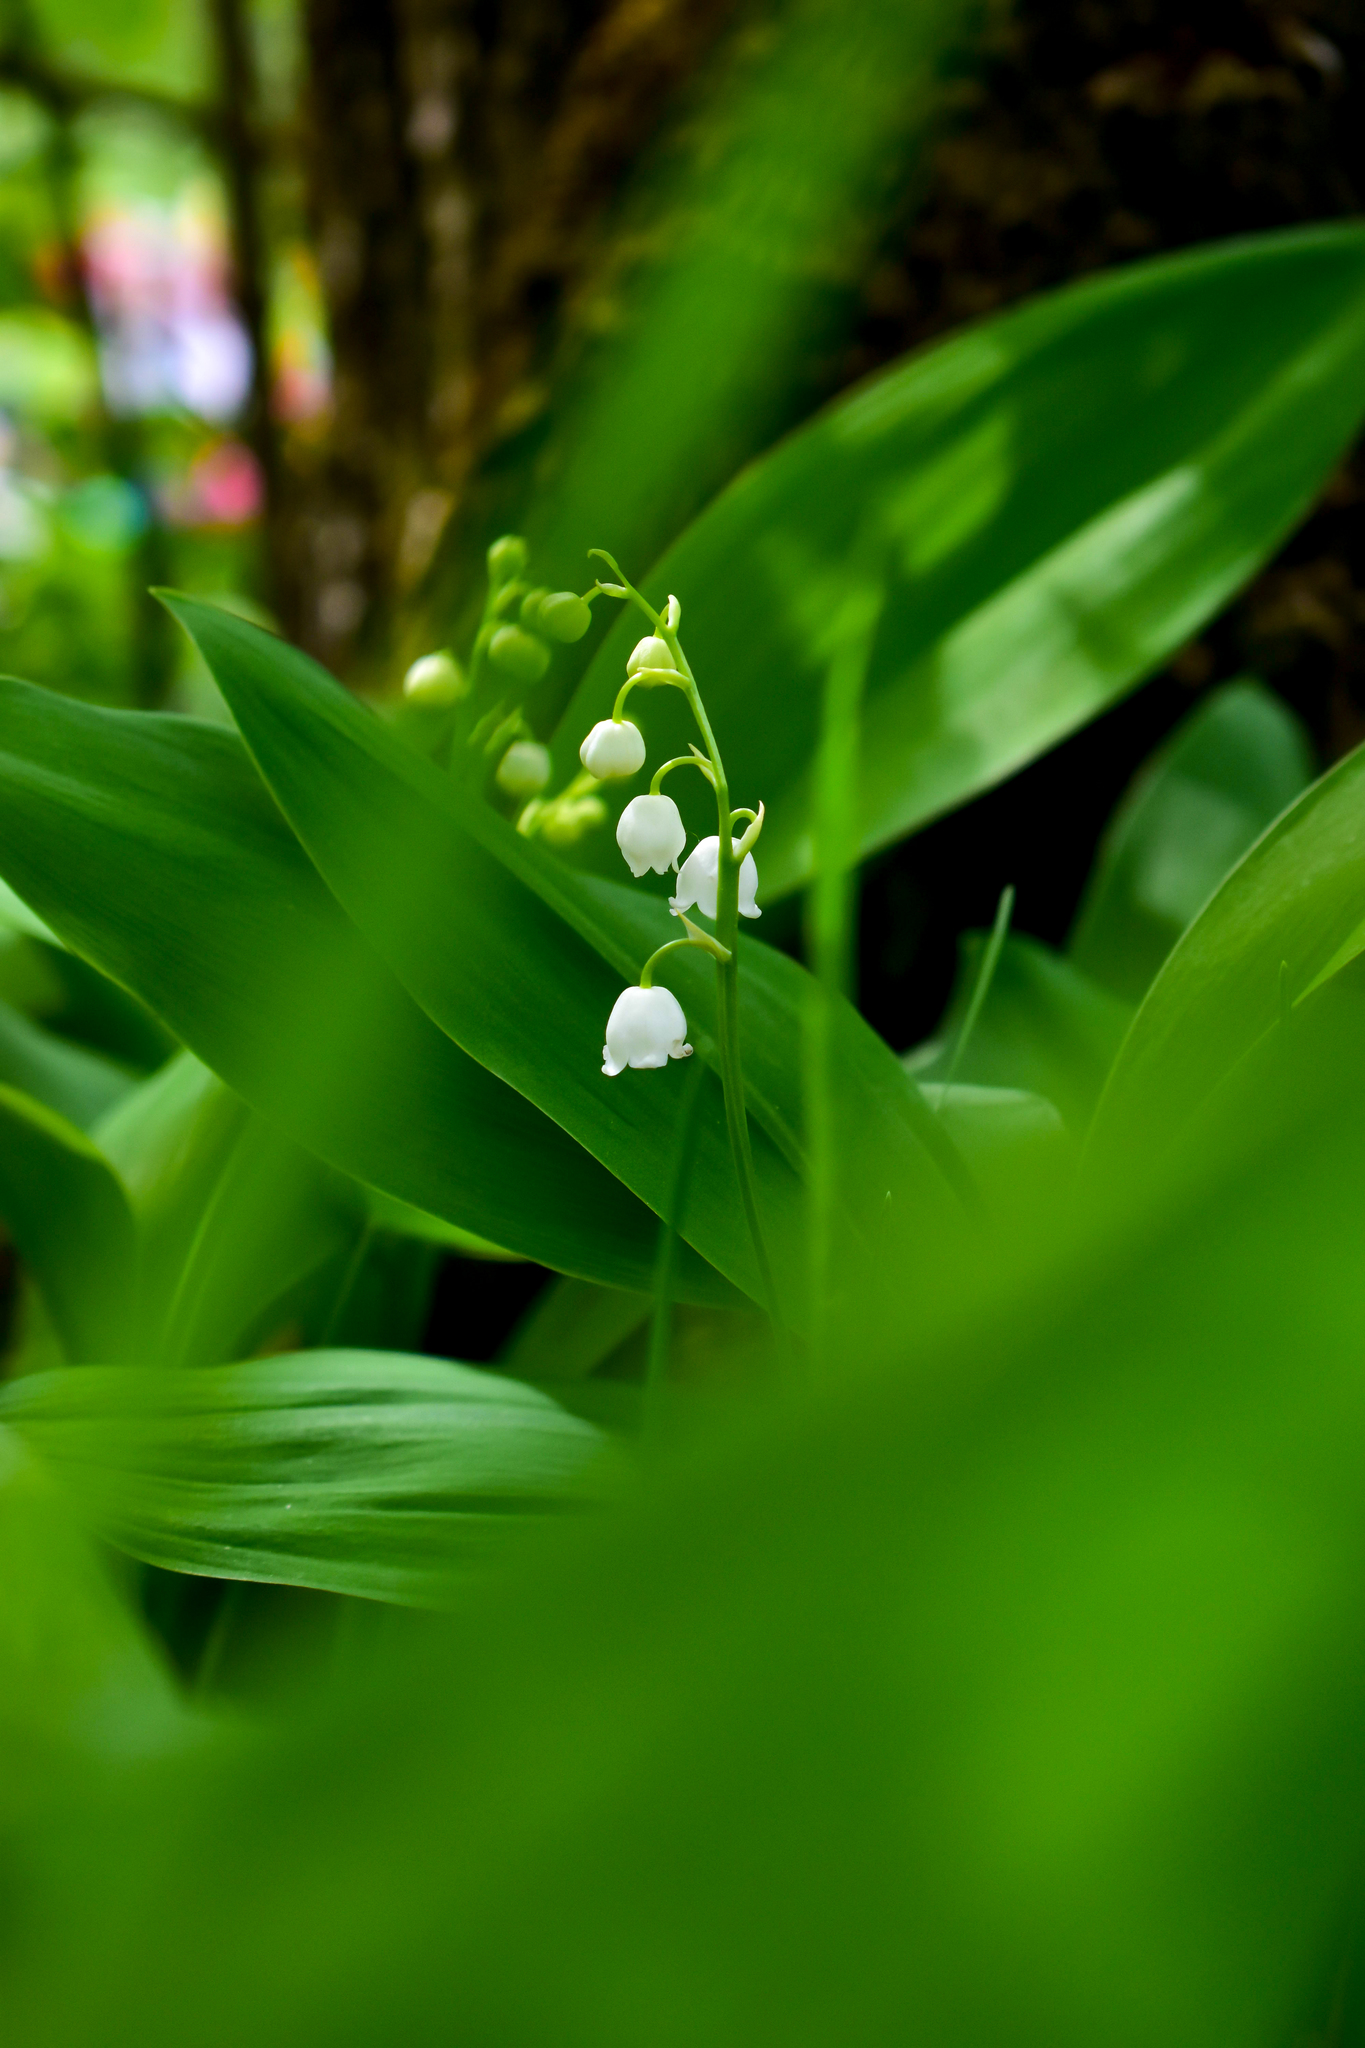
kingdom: Plantae
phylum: Tracheophyta
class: Liliopsida
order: Asparagales
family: Asparagaceae
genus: Convallaria
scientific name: Convallaria majalis
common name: Lily-of-the-valley
